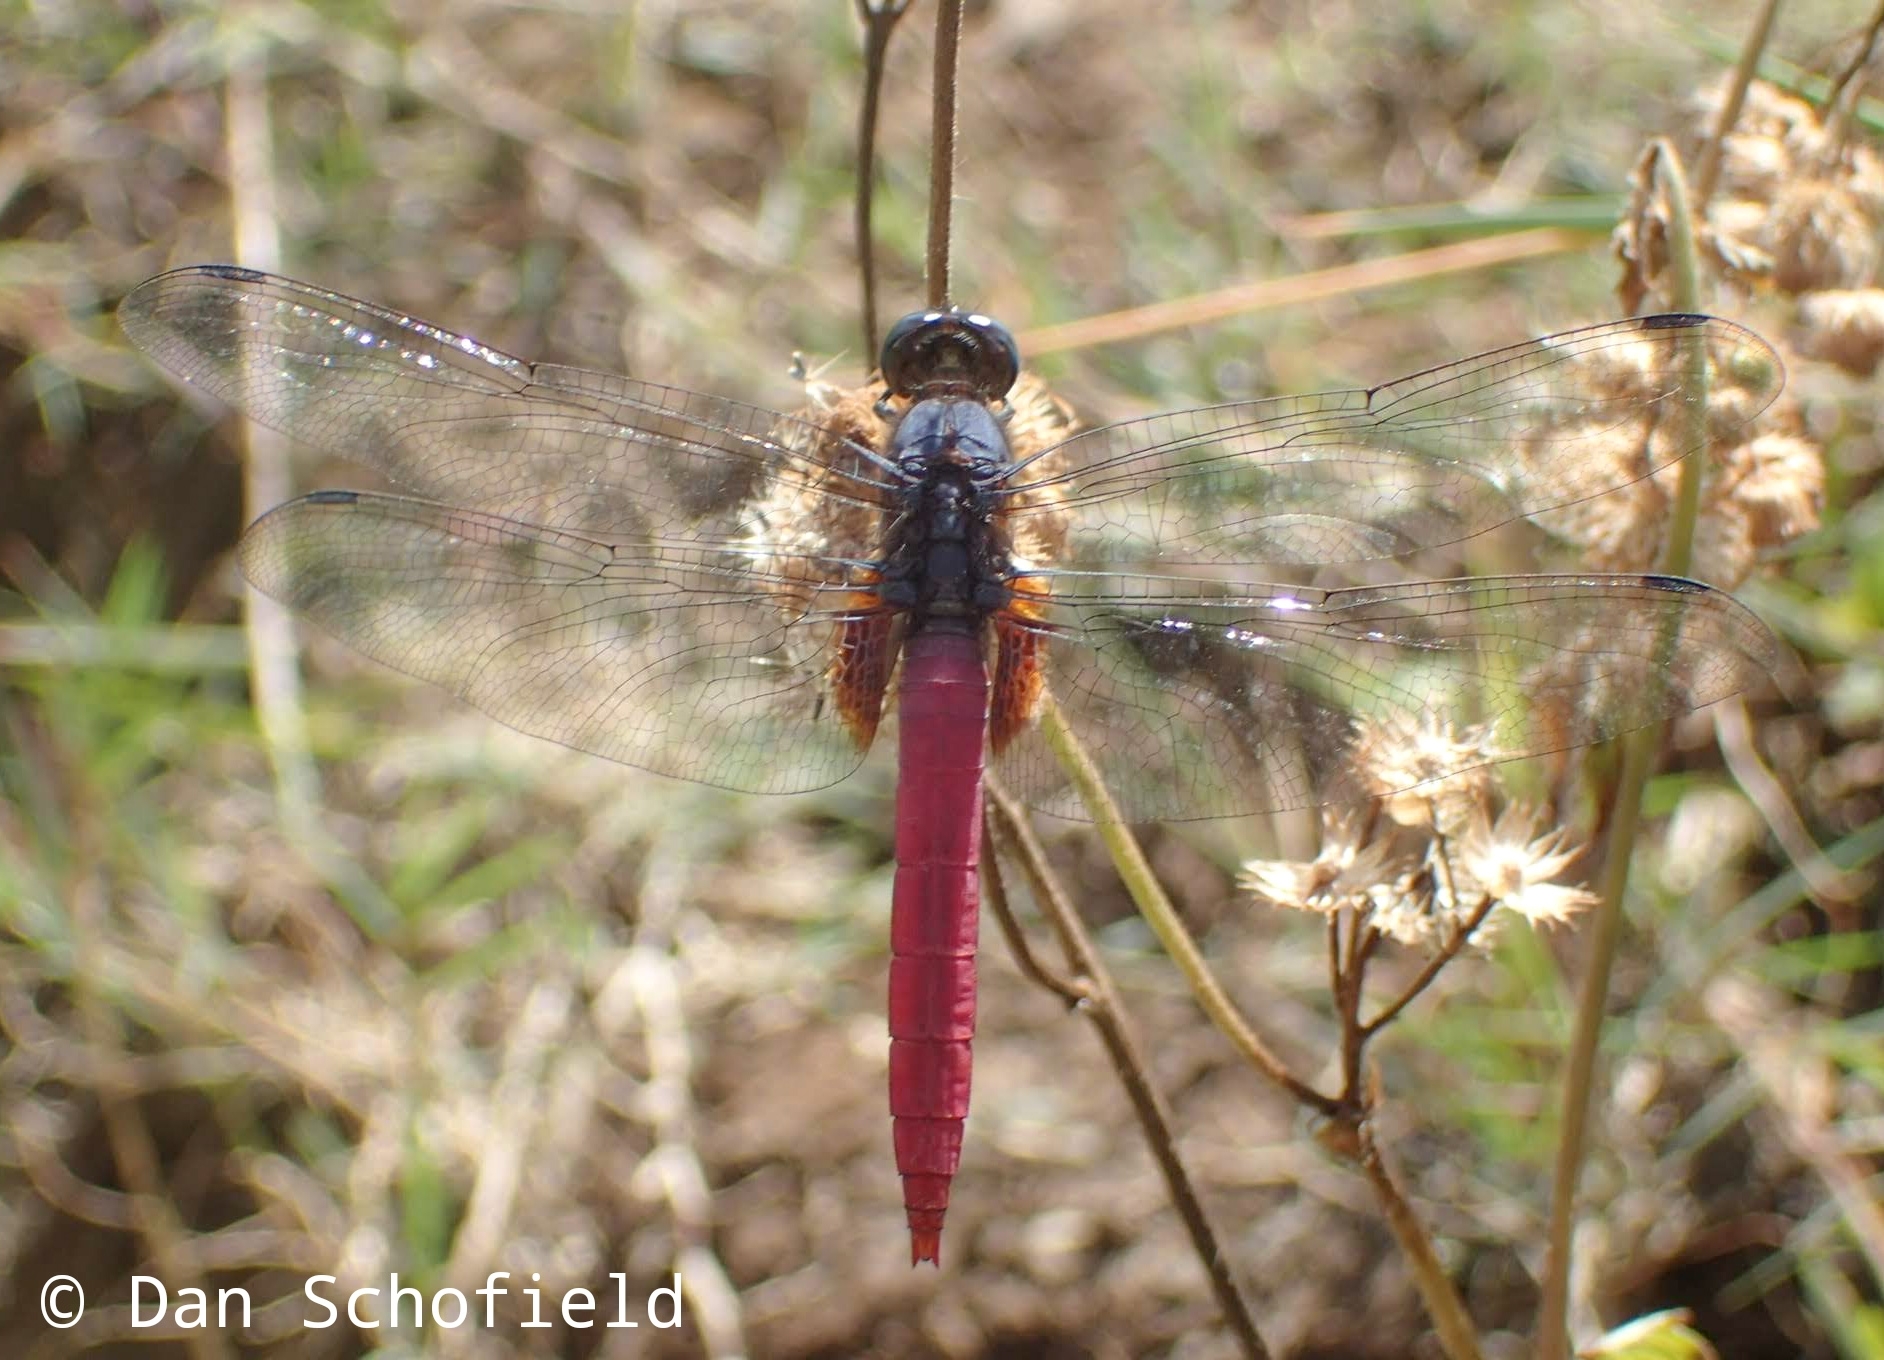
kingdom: Animalia
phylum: Arthropoda
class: Insecta
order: Odonata
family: Libellulidae
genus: Orthetrum
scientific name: Orthetrum pruinosum
